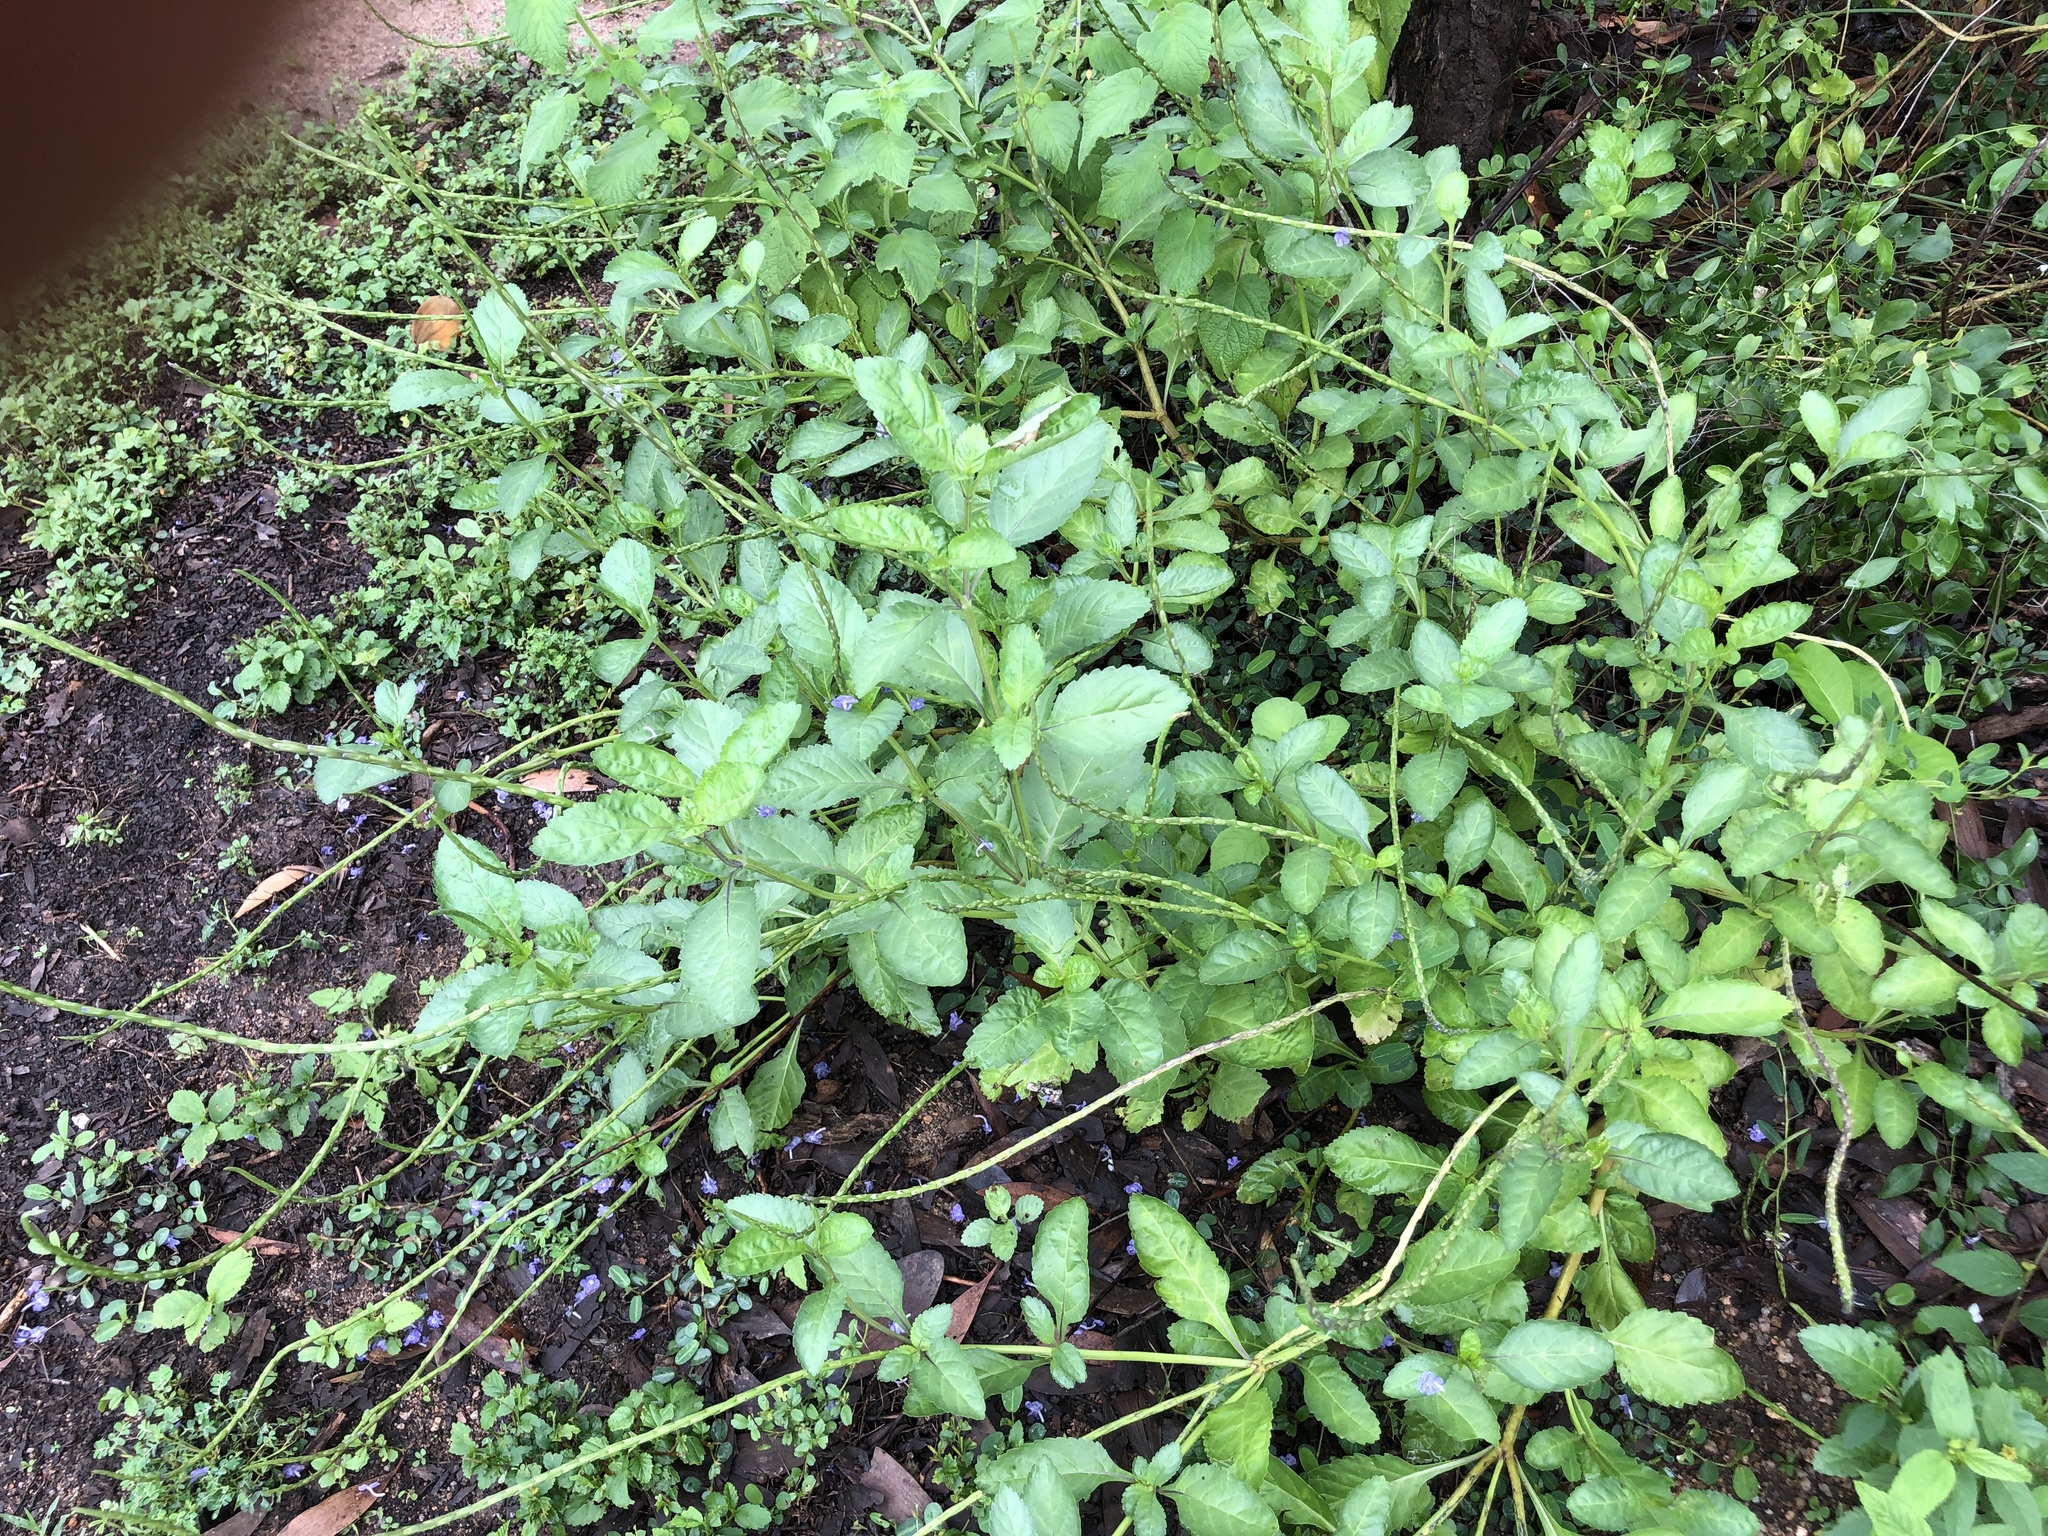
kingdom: Plantae
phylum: Tracheophyta
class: Magnoliopsida
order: Lamiales
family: Verbenaceae
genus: Stachytarpheta
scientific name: Stachytarpheta jamaicensis
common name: Light-blue snakeweed
